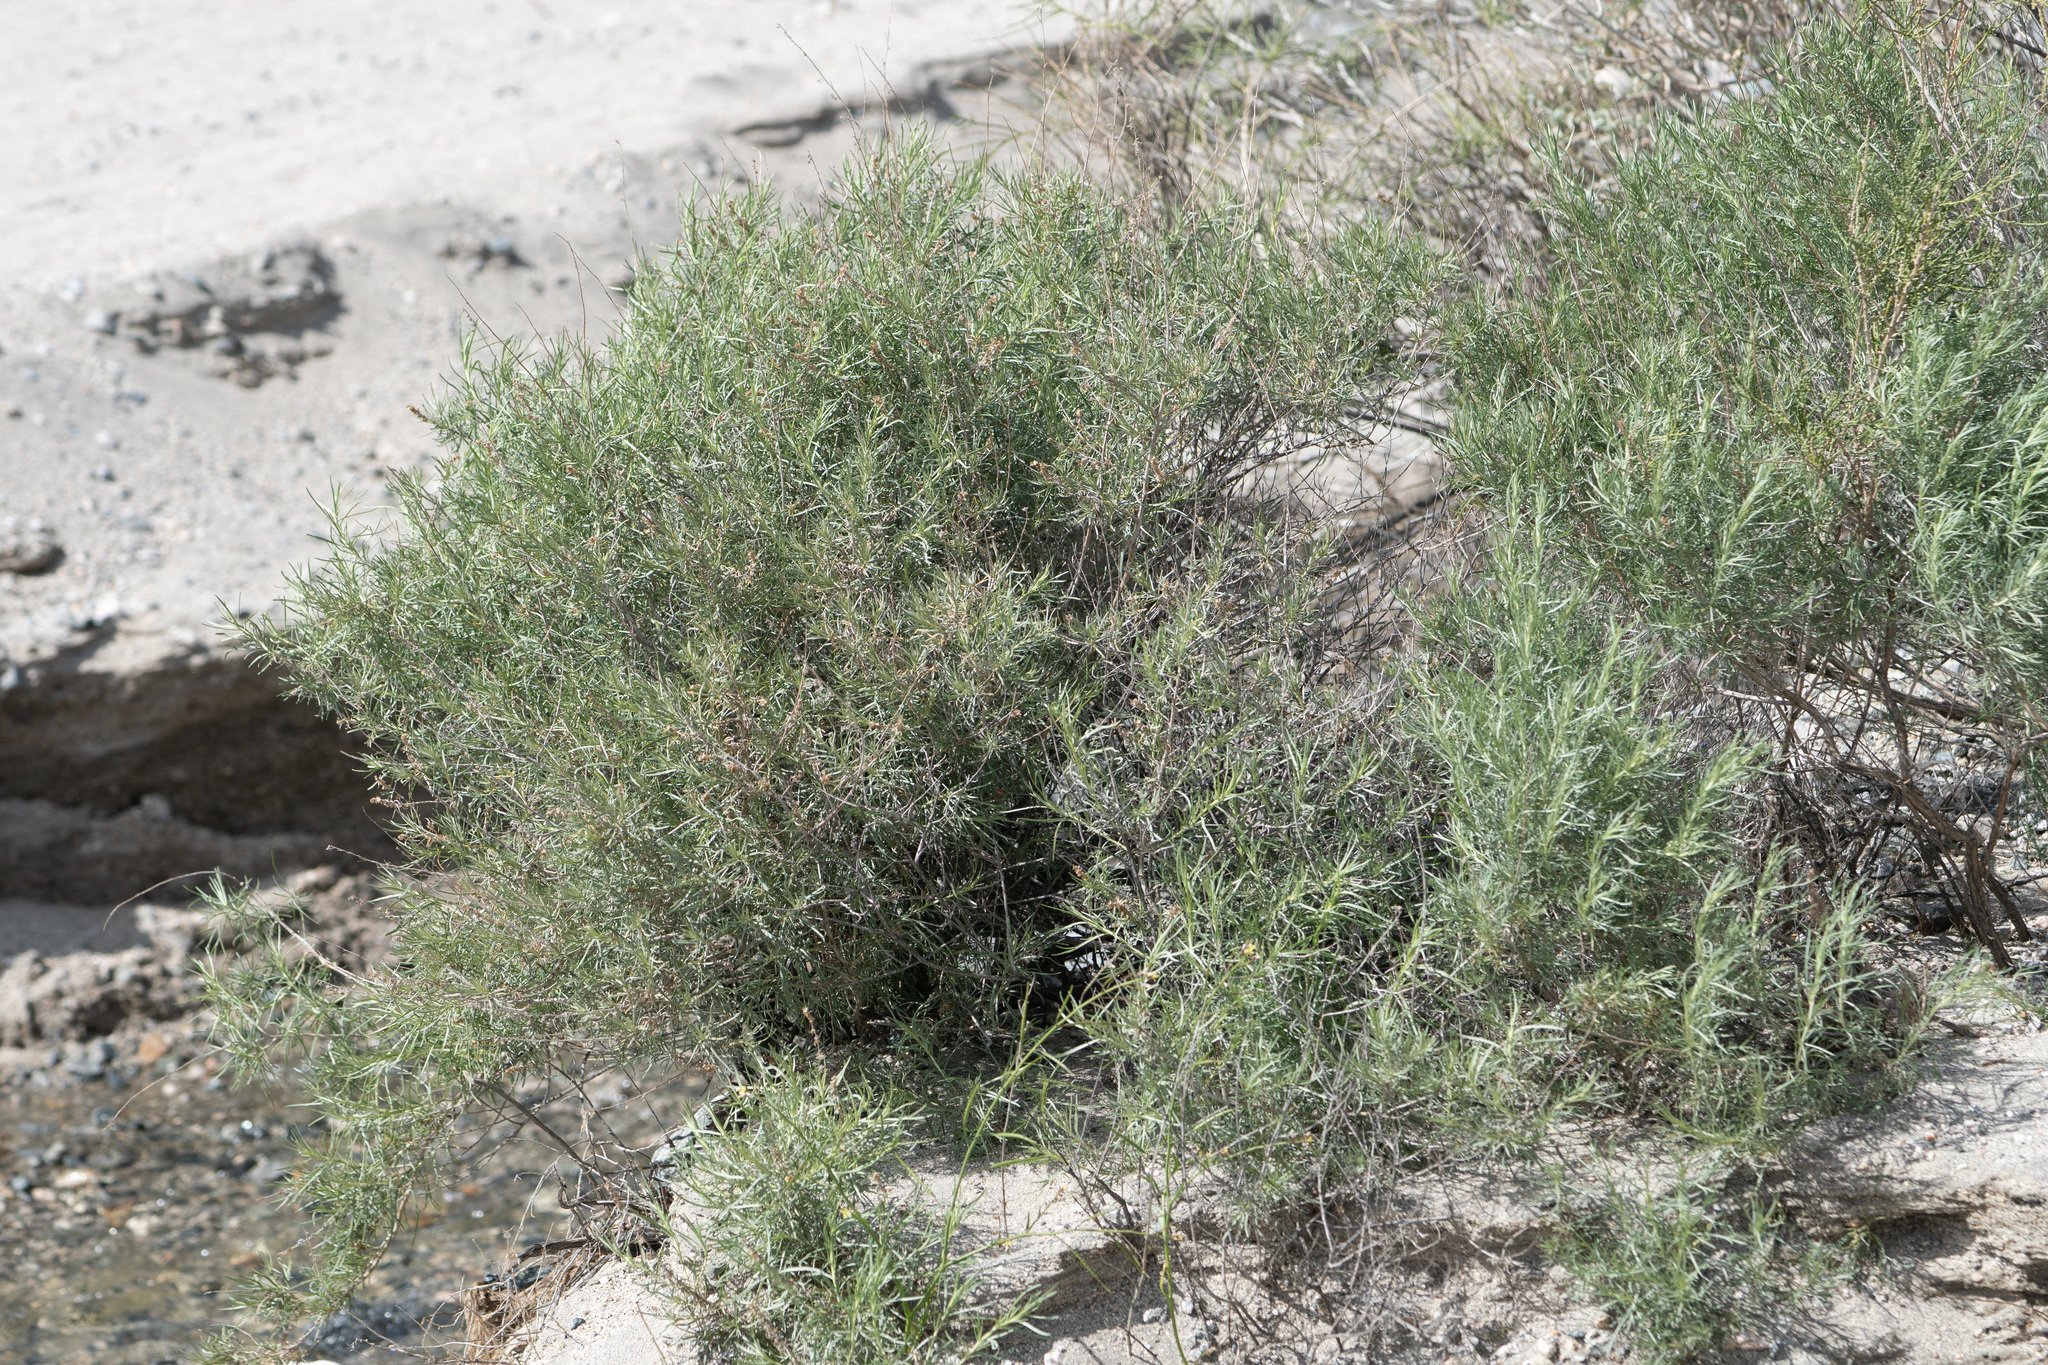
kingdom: Plantae
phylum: Tracheophyta
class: Magnoliopsida
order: Asterales
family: Asteraceae
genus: Artemisia
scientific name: Artemisia californica
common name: California sagebrush
